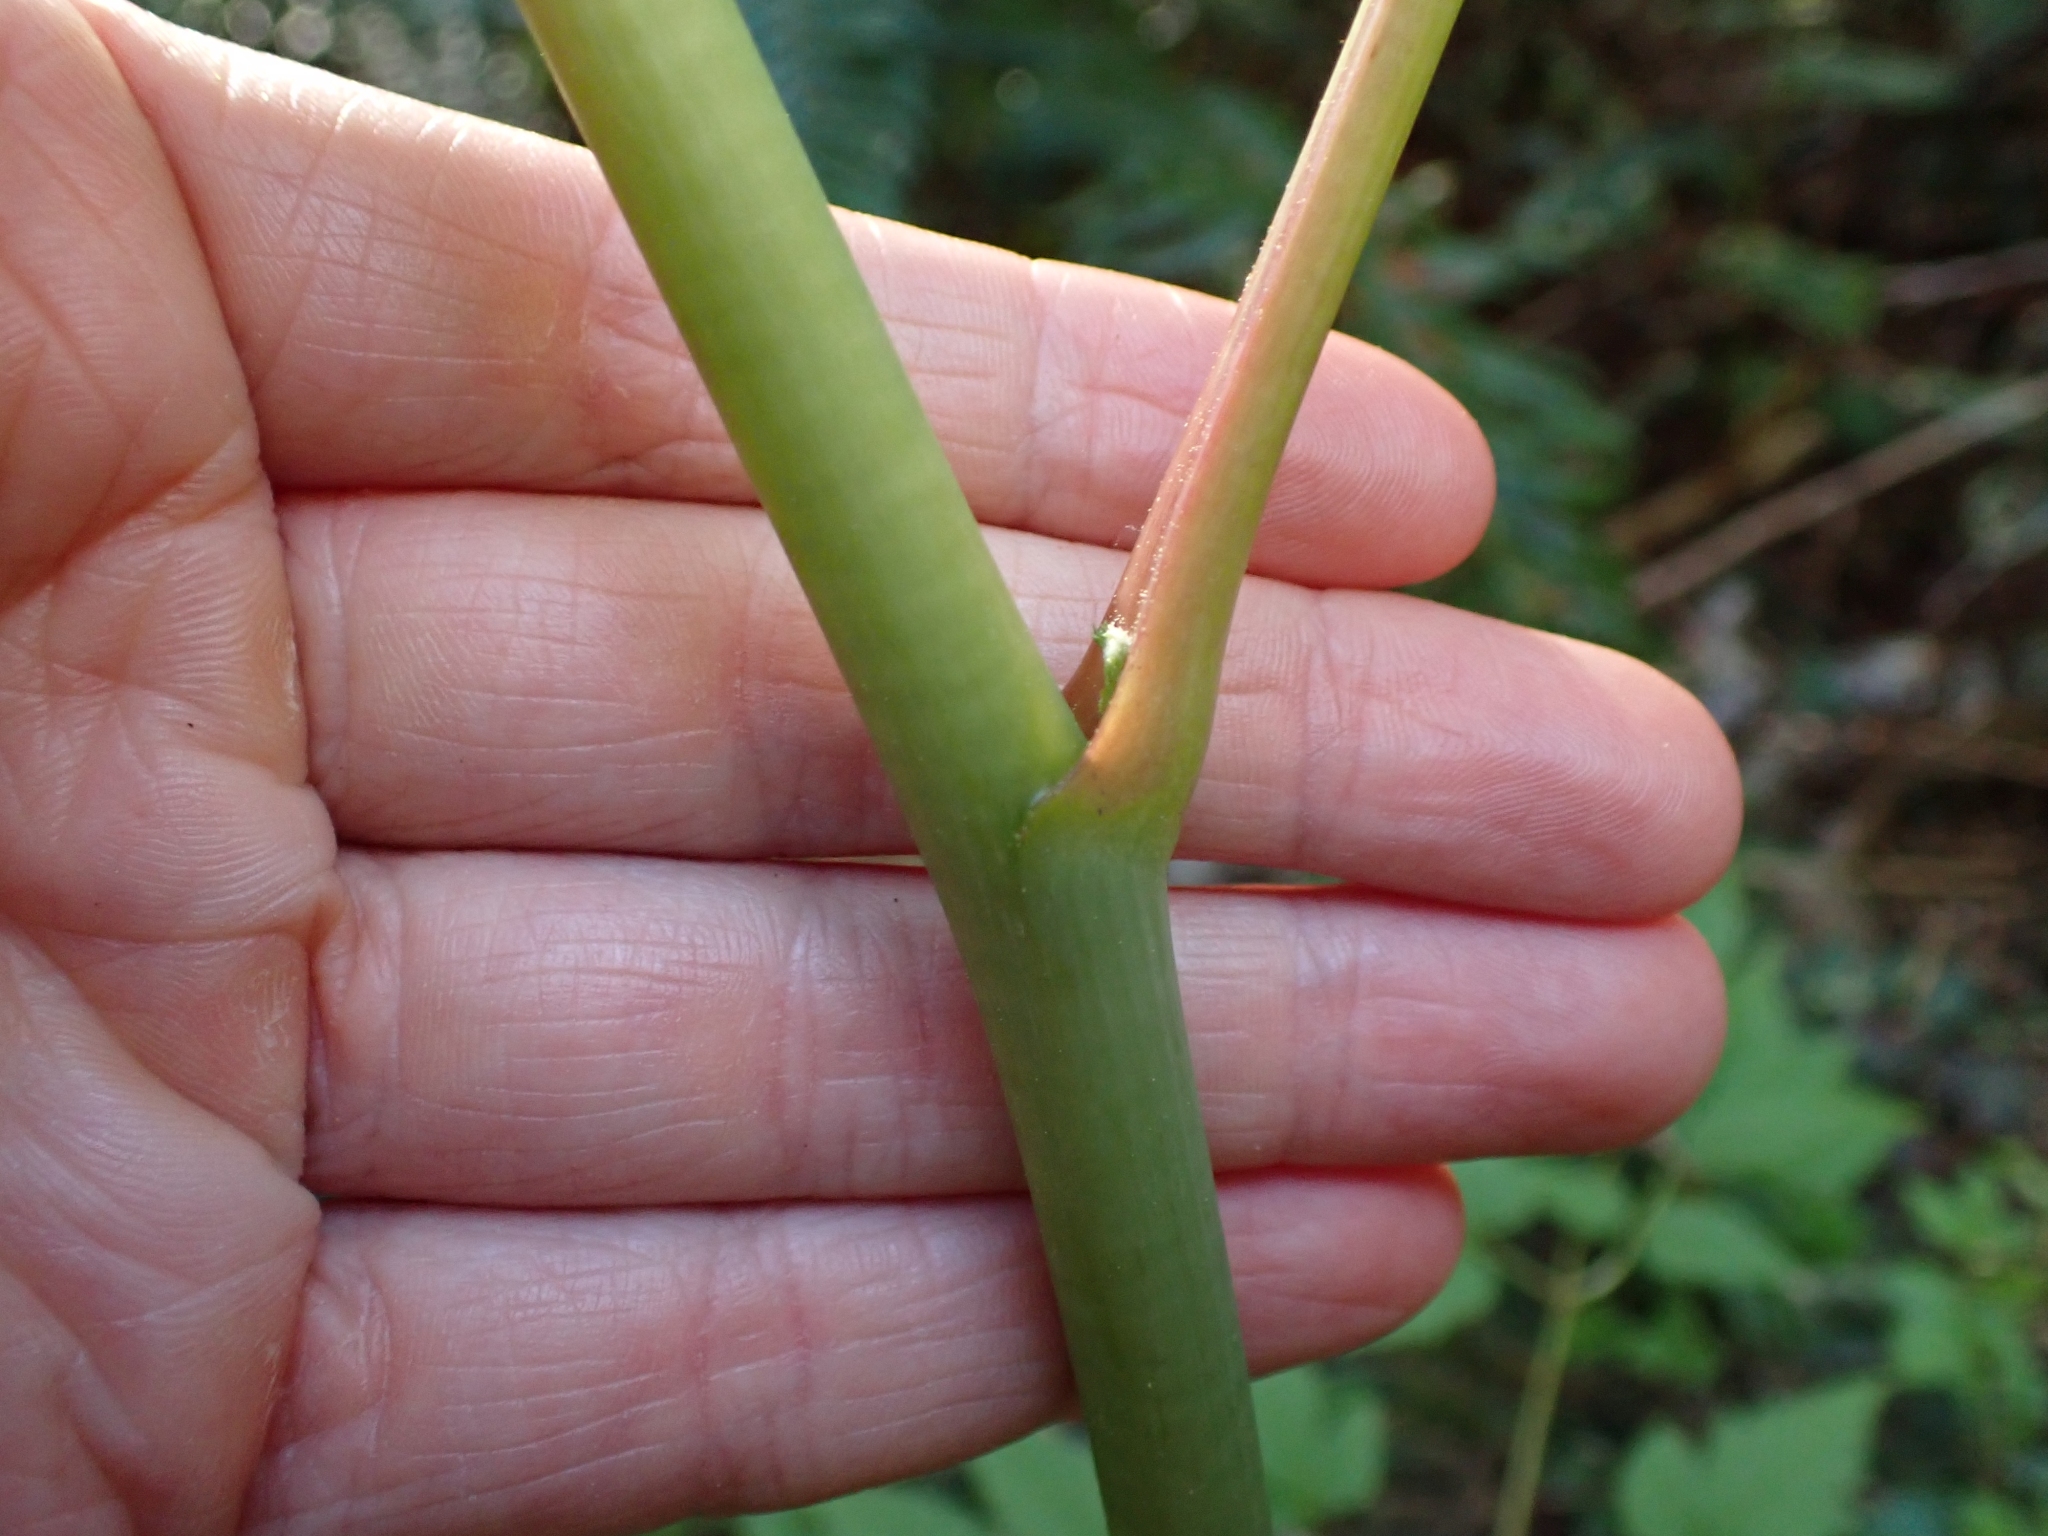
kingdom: Plantae
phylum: Tracheophyta
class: Magnoliopsida
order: Rosales
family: Rosaceae
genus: Aruncus
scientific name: Aruncus dioicus
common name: Buck's-beard
